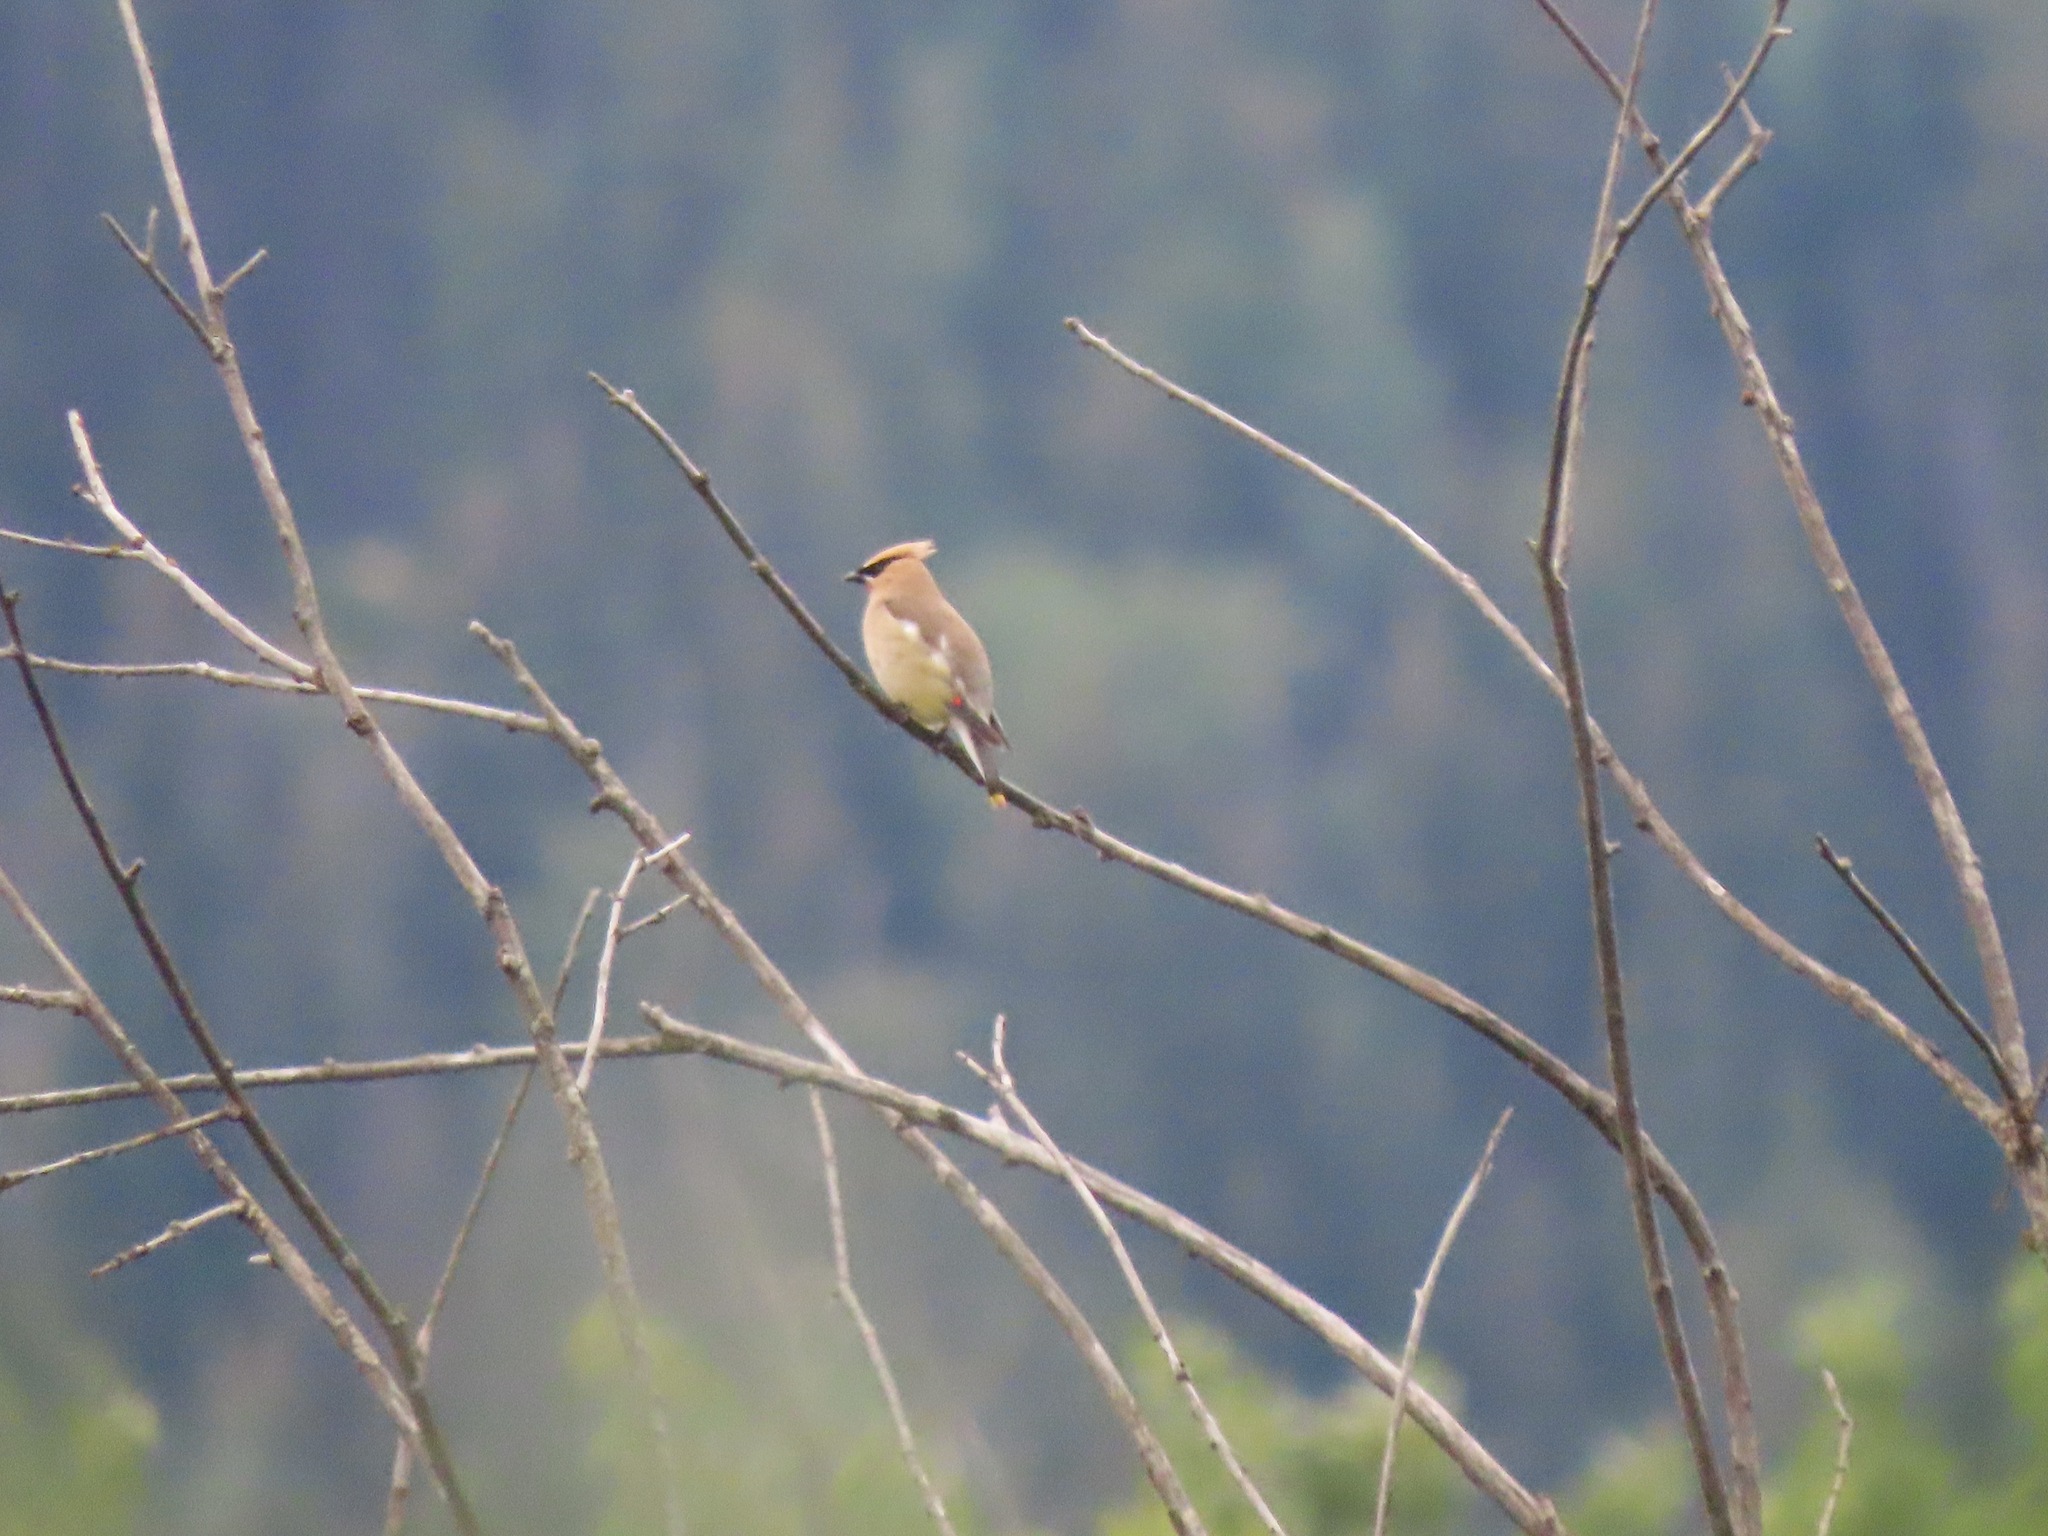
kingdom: Animalia
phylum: Chordata
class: Aves
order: Passeriformes
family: Bombycillidae
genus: Bombycilla
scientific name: Bombycilla cedrorum
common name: Cedar waxwing
